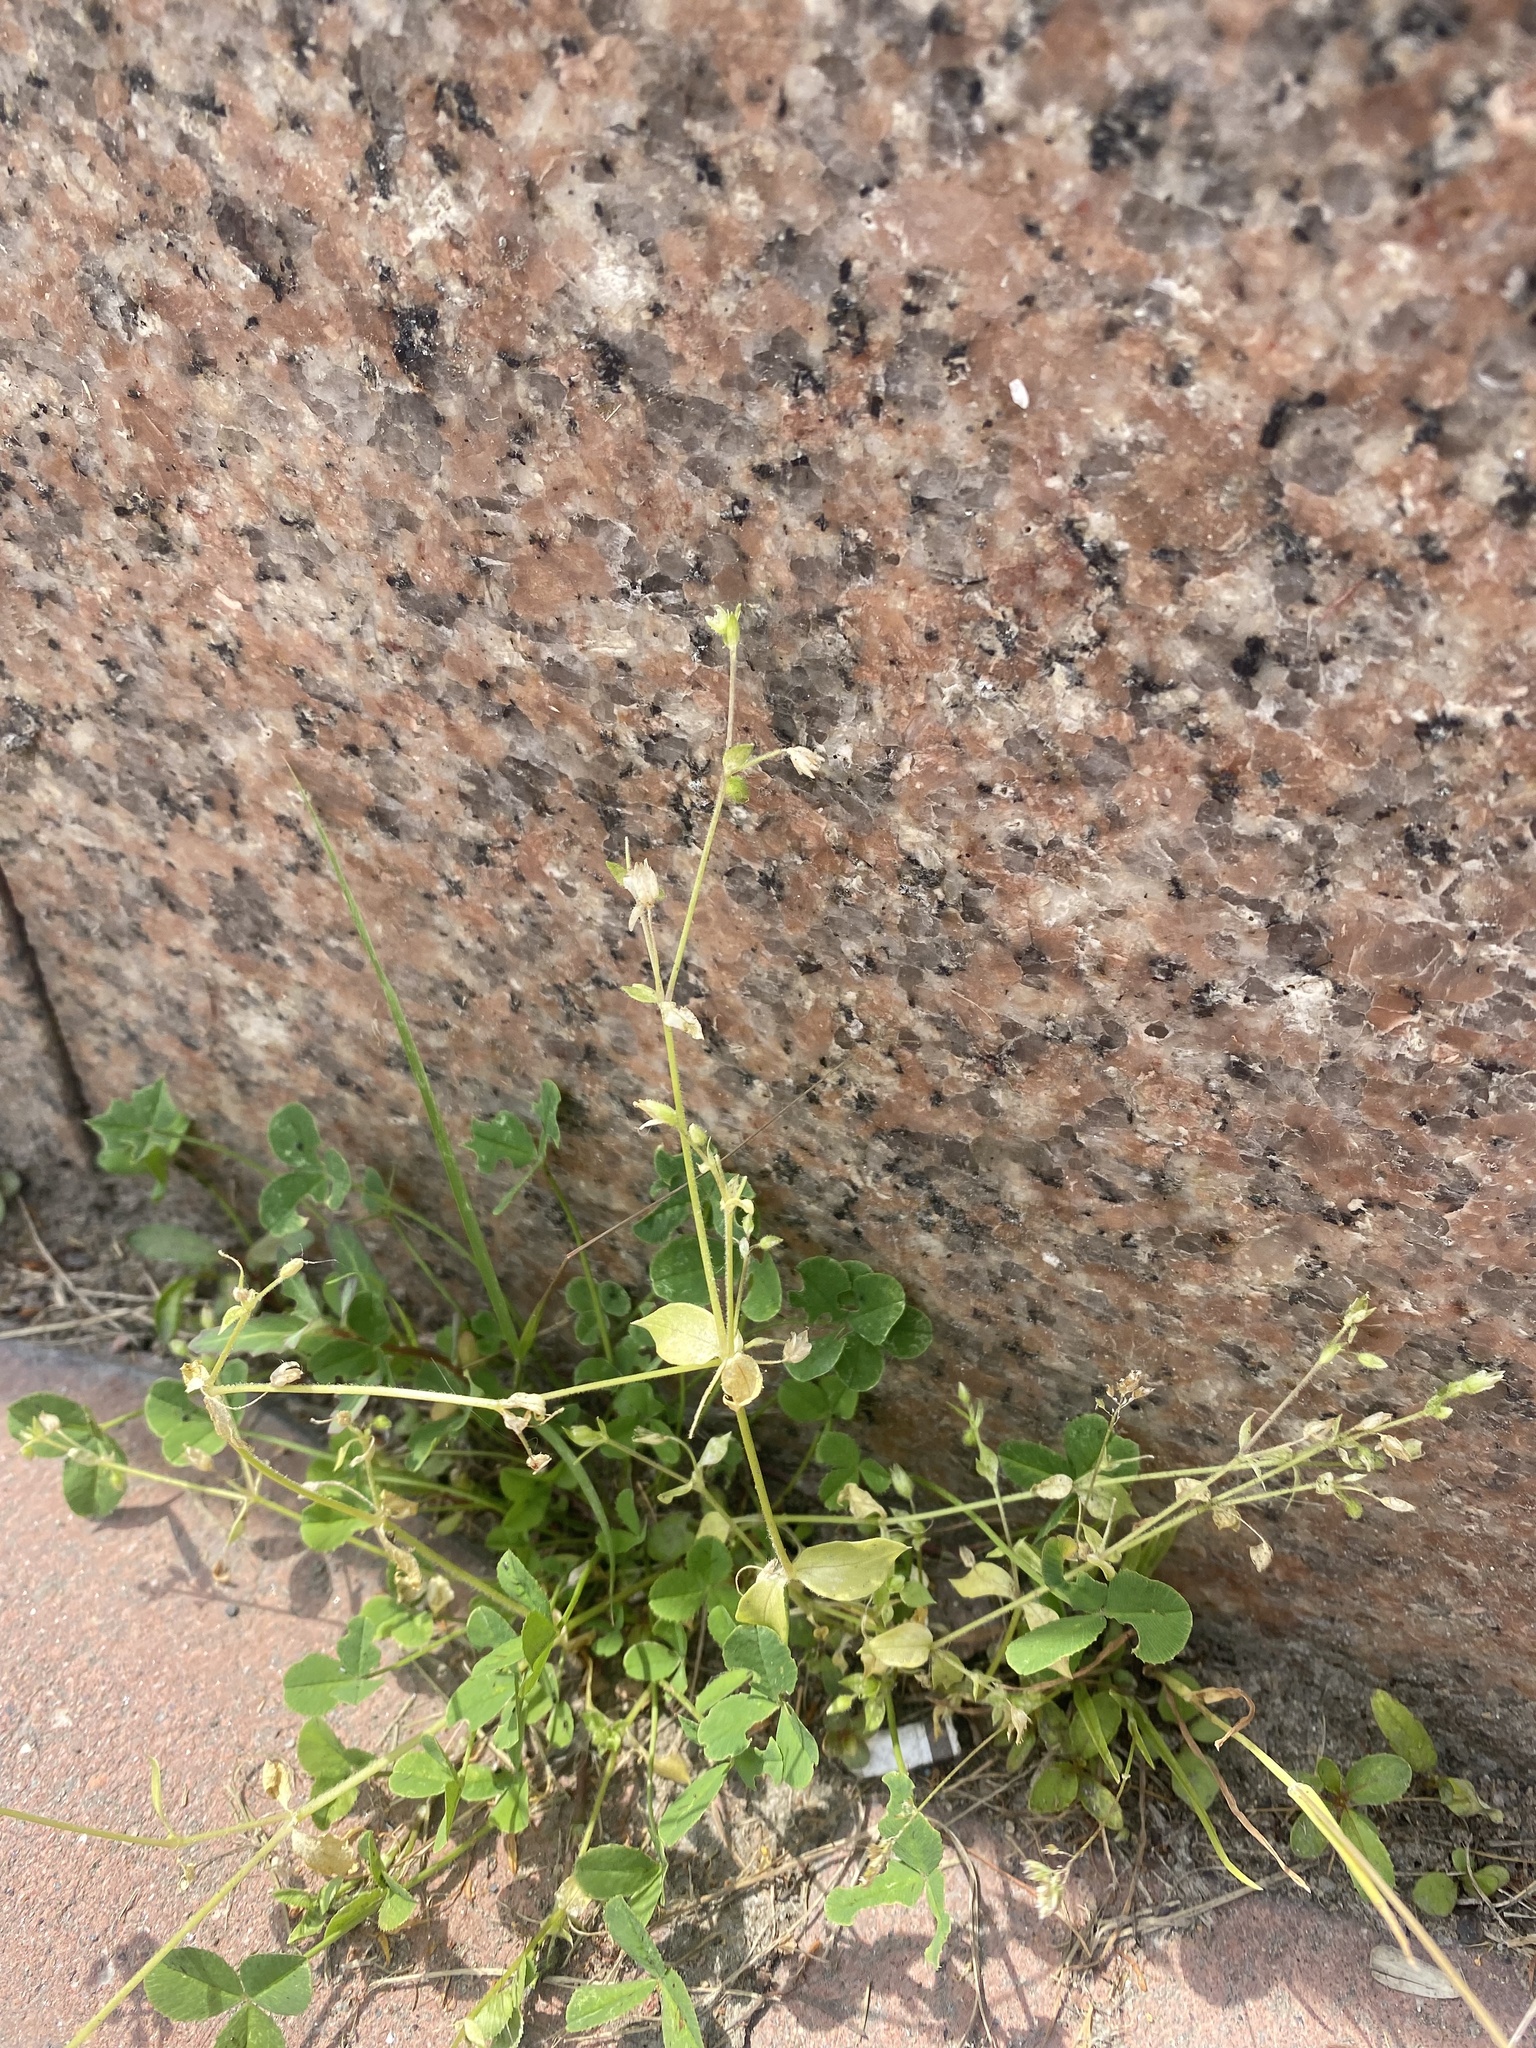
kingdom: Plantae
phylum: Tracheophyta
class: Magnoliopsida
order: Caryophyllales
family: Caryophyllaceae
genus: Stellaria
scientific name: Stellaria media
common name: Common chickweed
